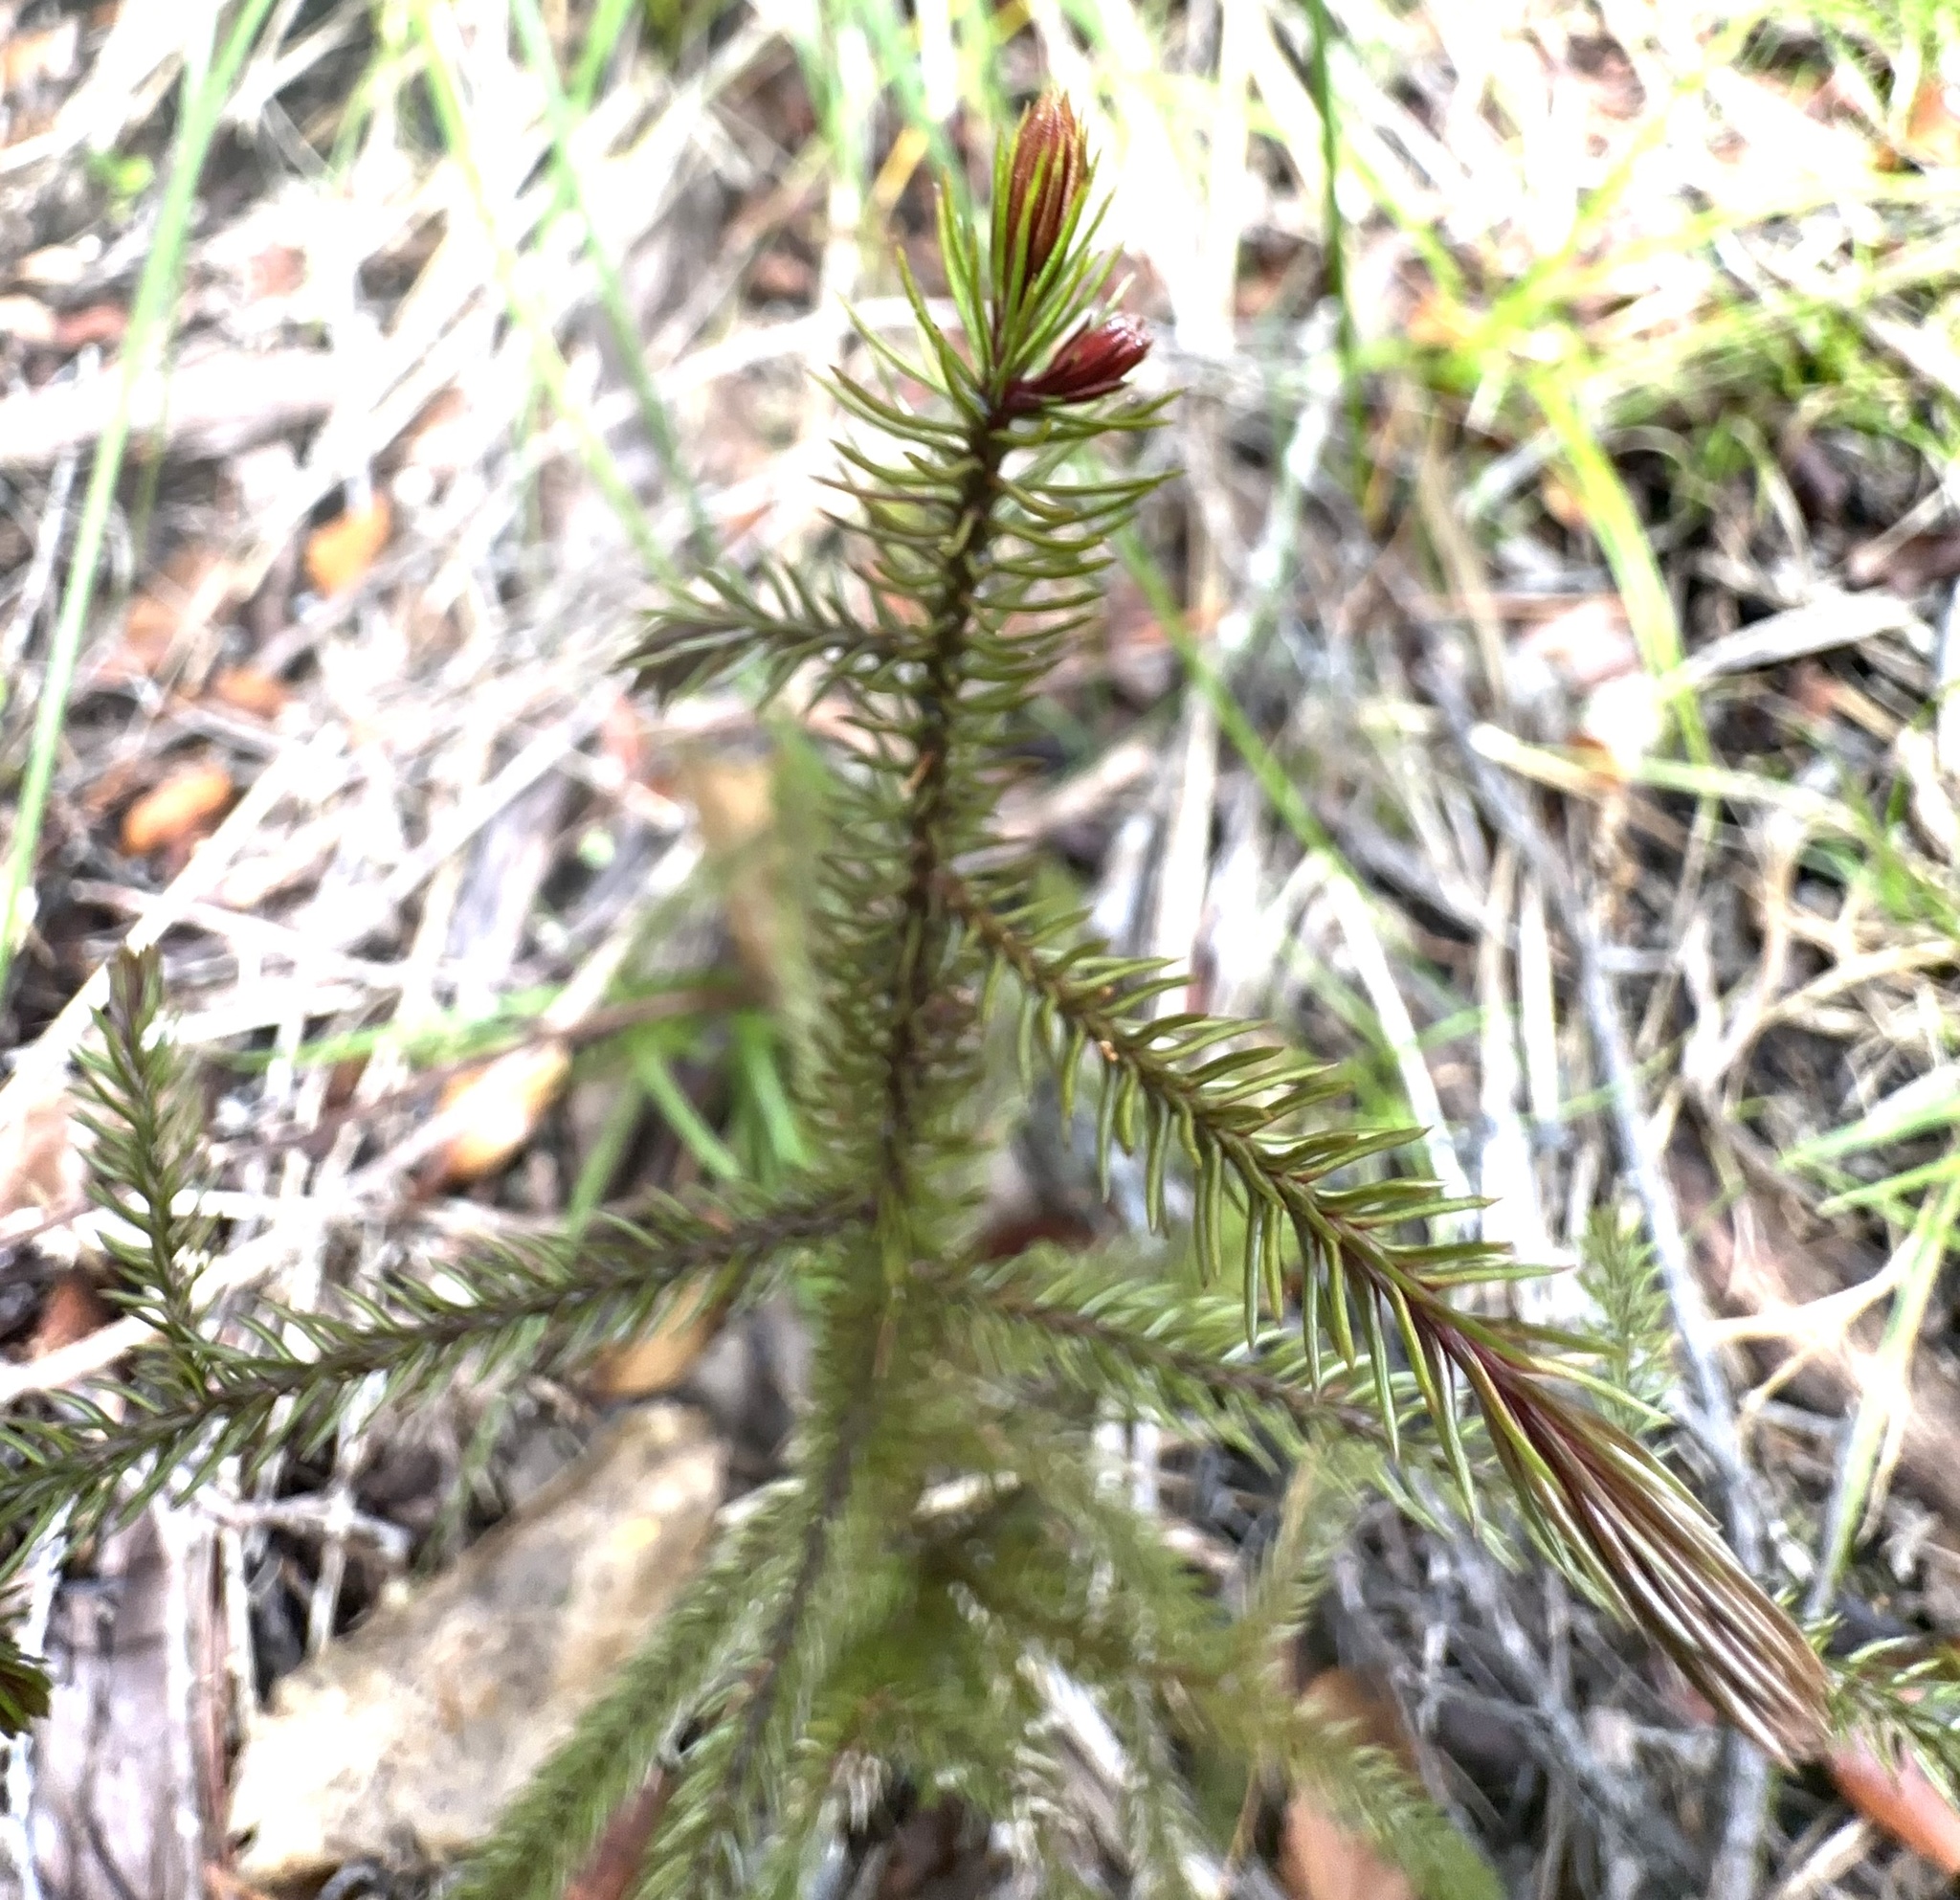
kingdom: Plantae
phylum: Tracheophyta
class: Pinopsida
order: Pinales
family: Podocarpaceae
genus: Dacrydium
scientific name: Dacrydium cupressinum
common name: Red pine
